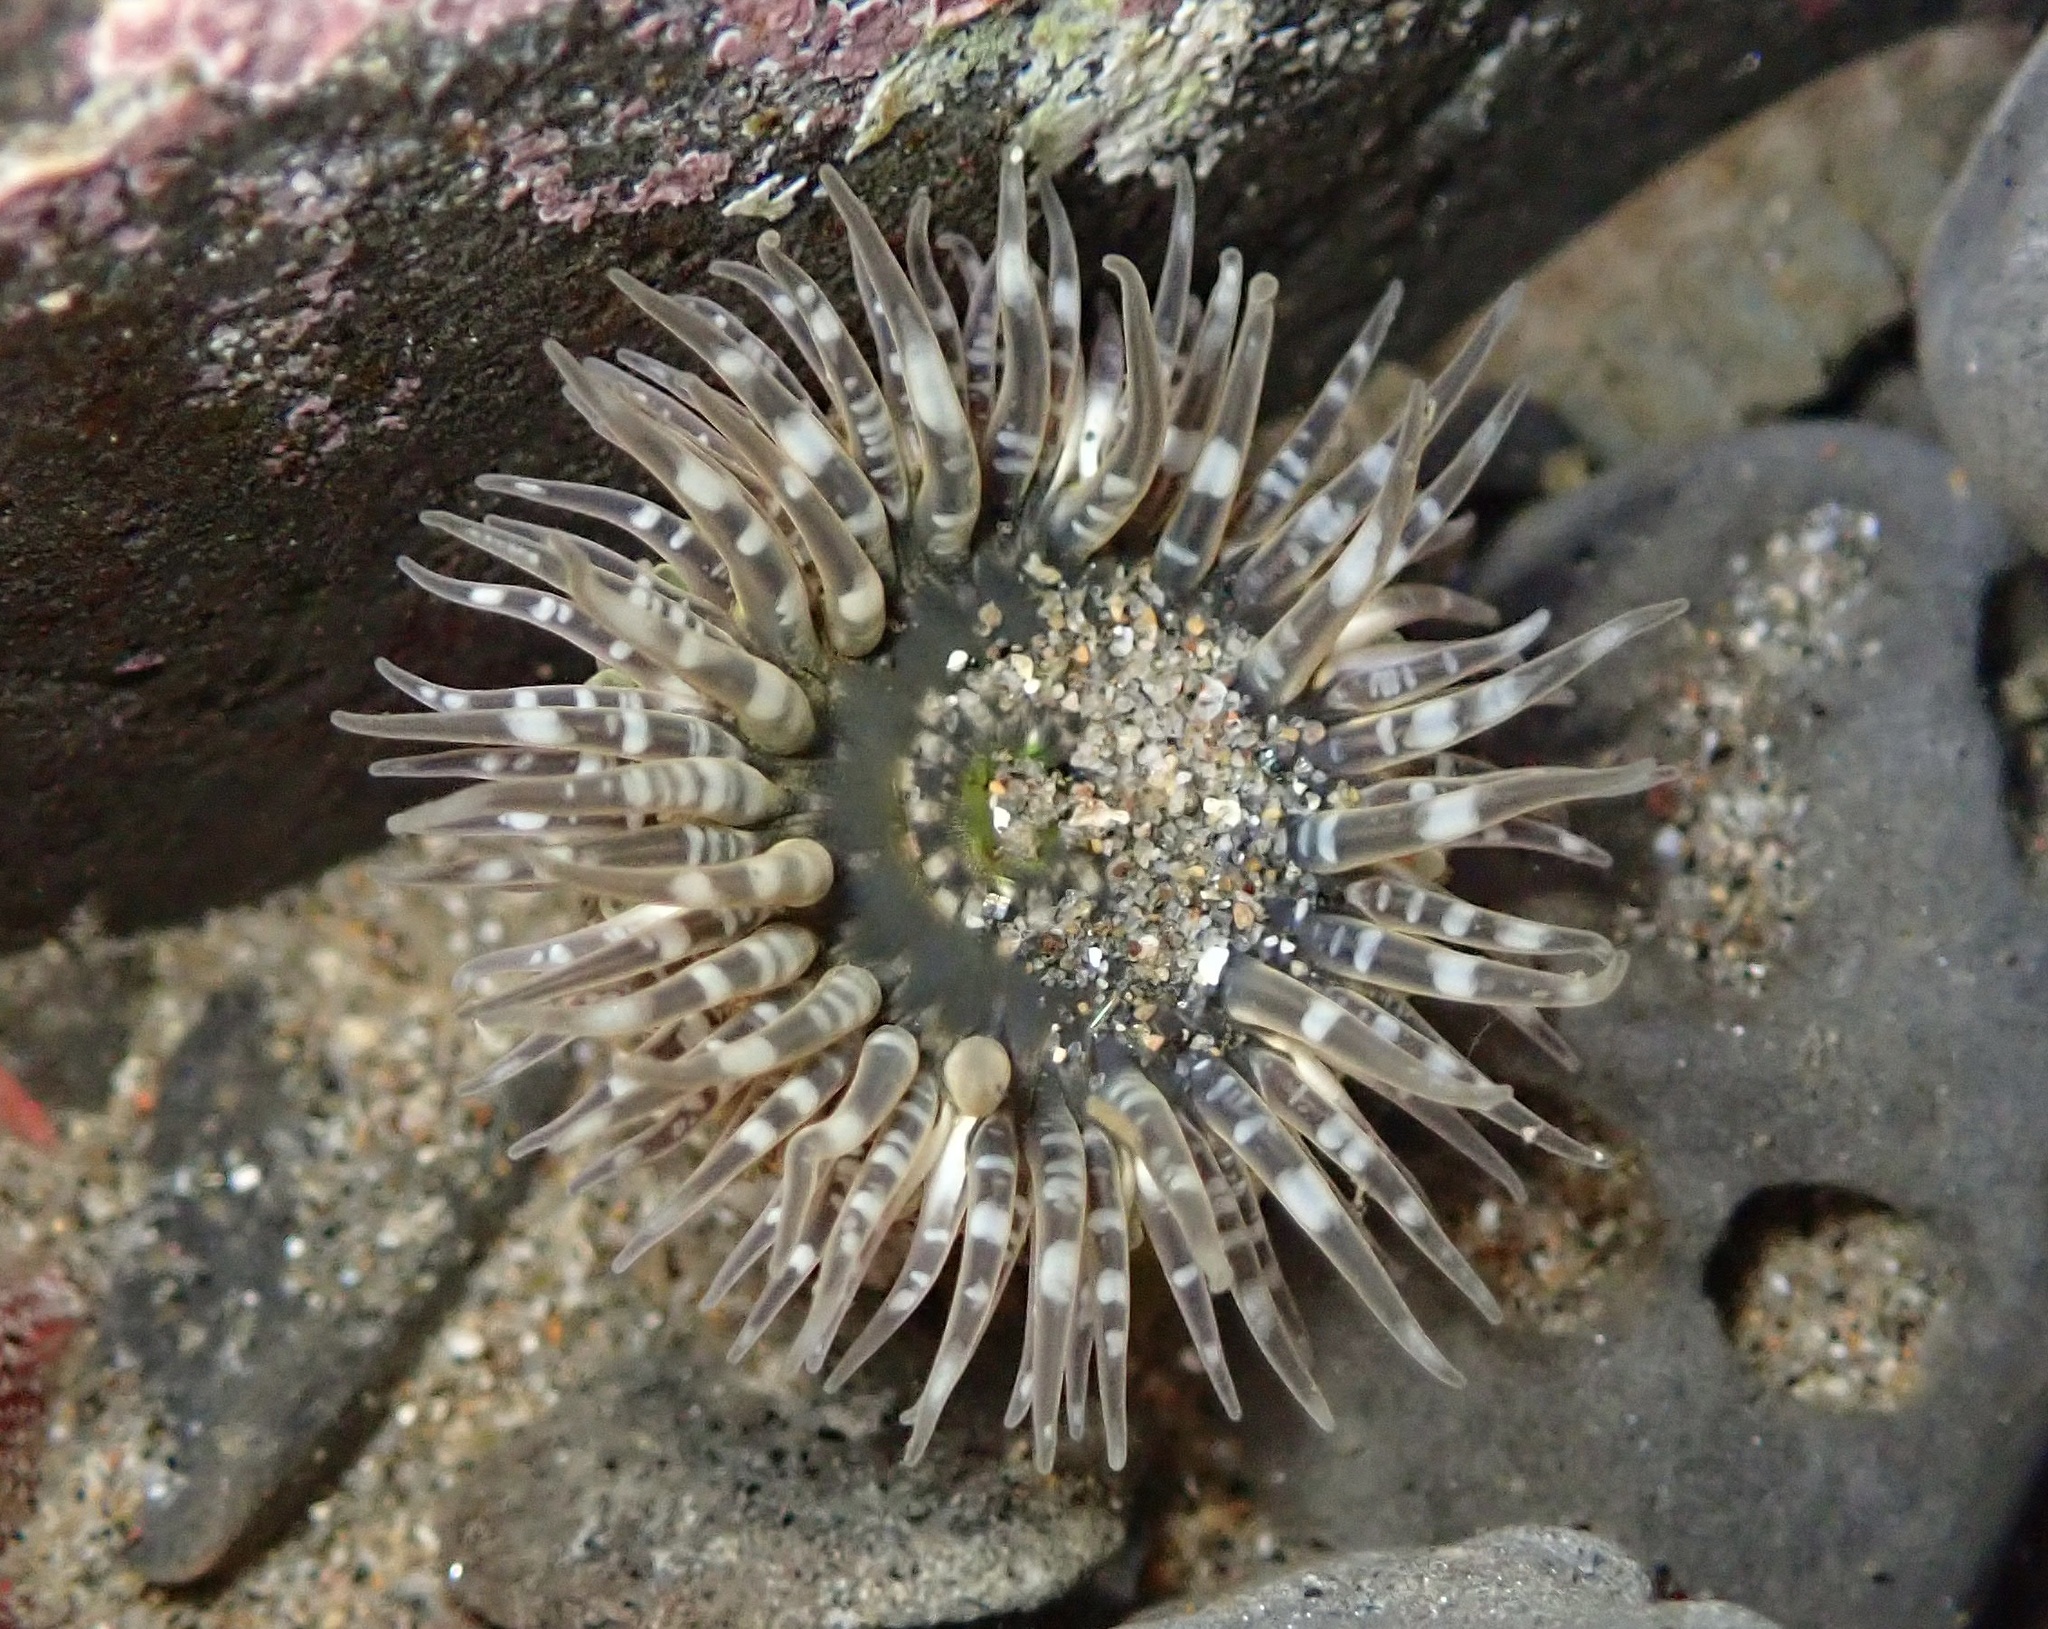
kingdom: Animalia
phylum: Cnidaria
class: Anthozoa
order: Actiniaria
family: Actiniidae
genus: Anthopleura
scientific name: Anthopleura artemisia
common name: Buried sea anemone
